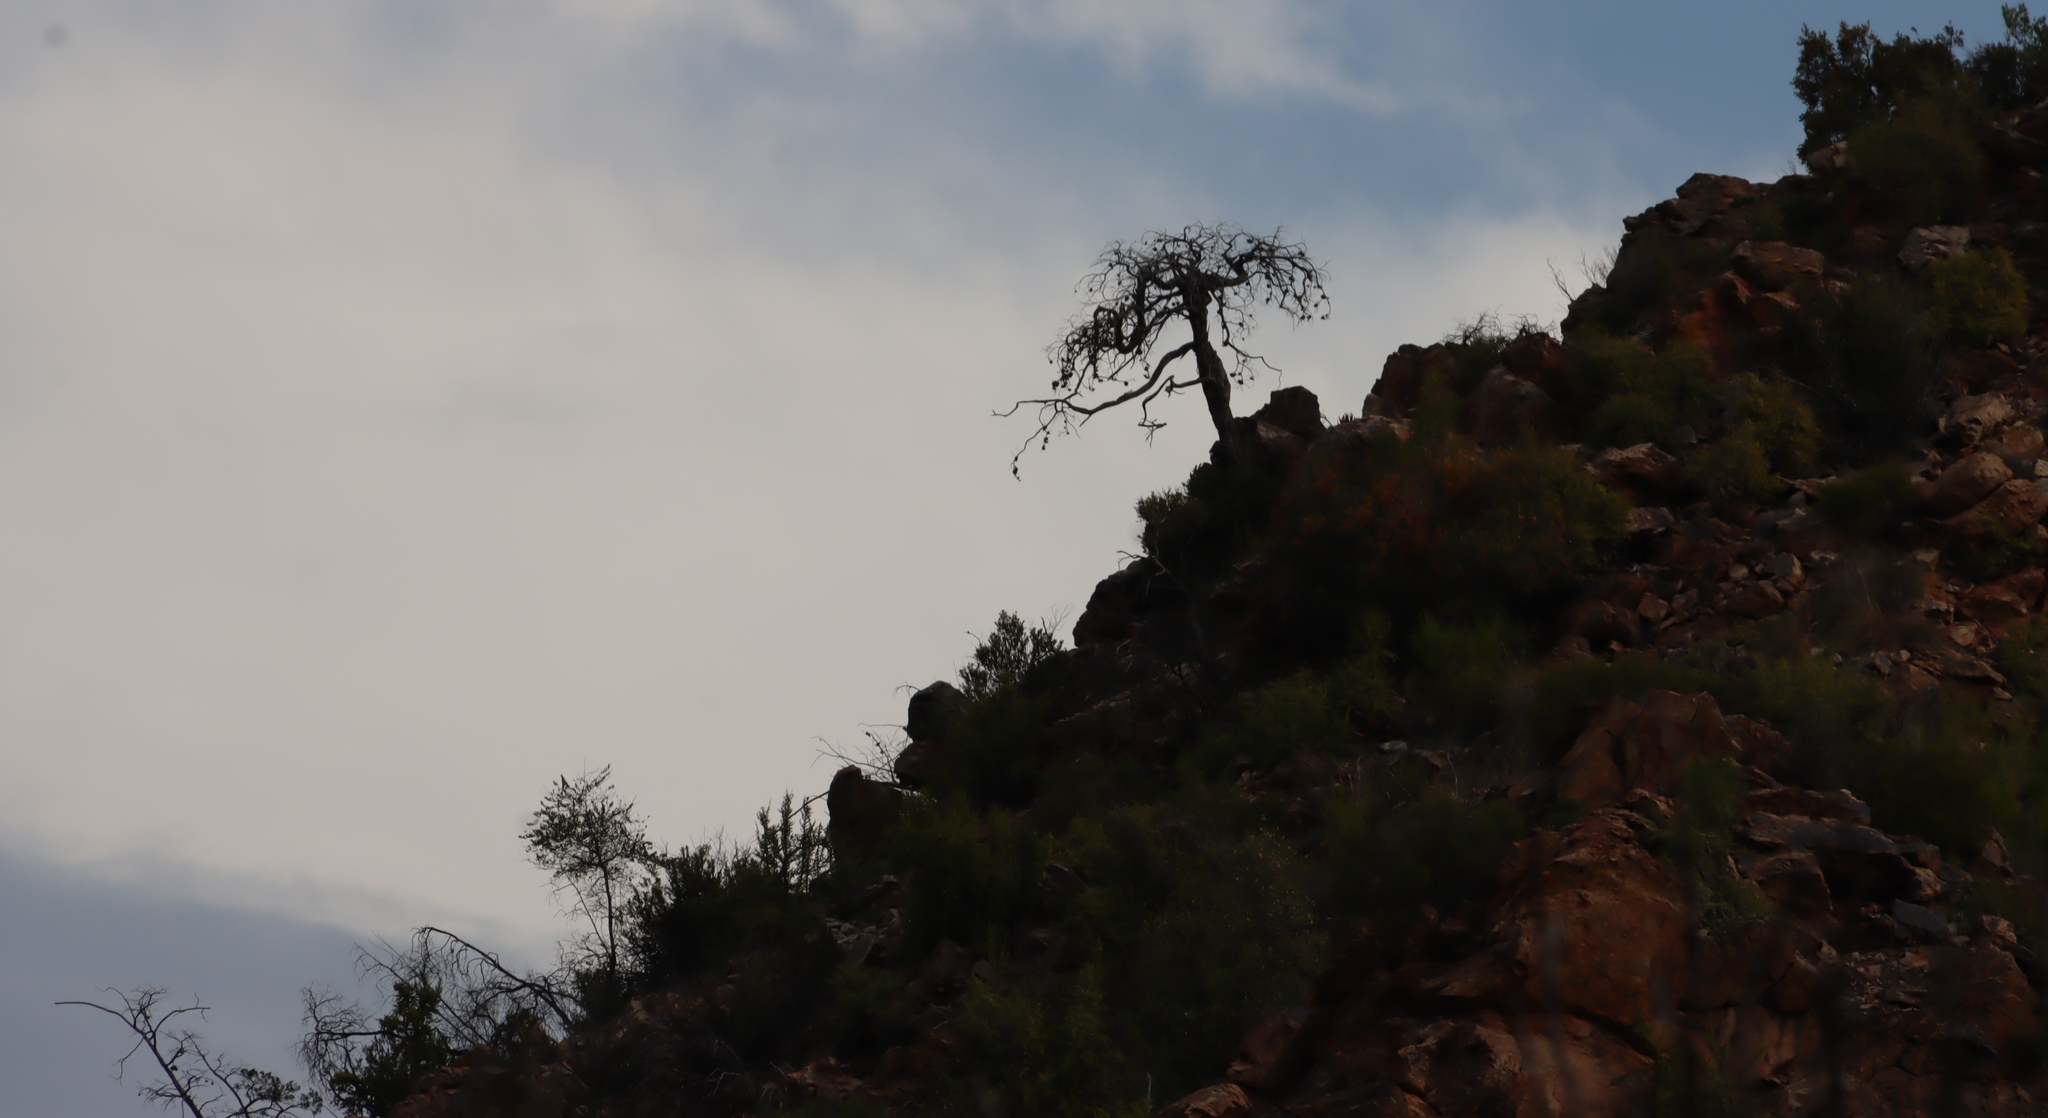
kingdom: Plantae
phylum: Tracheophyta
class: Pinopsida
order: Pinales
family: Cupressaceae
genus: Widdringtonia
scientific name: Widdringtonia schwarzii
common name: Baviaans cedar
